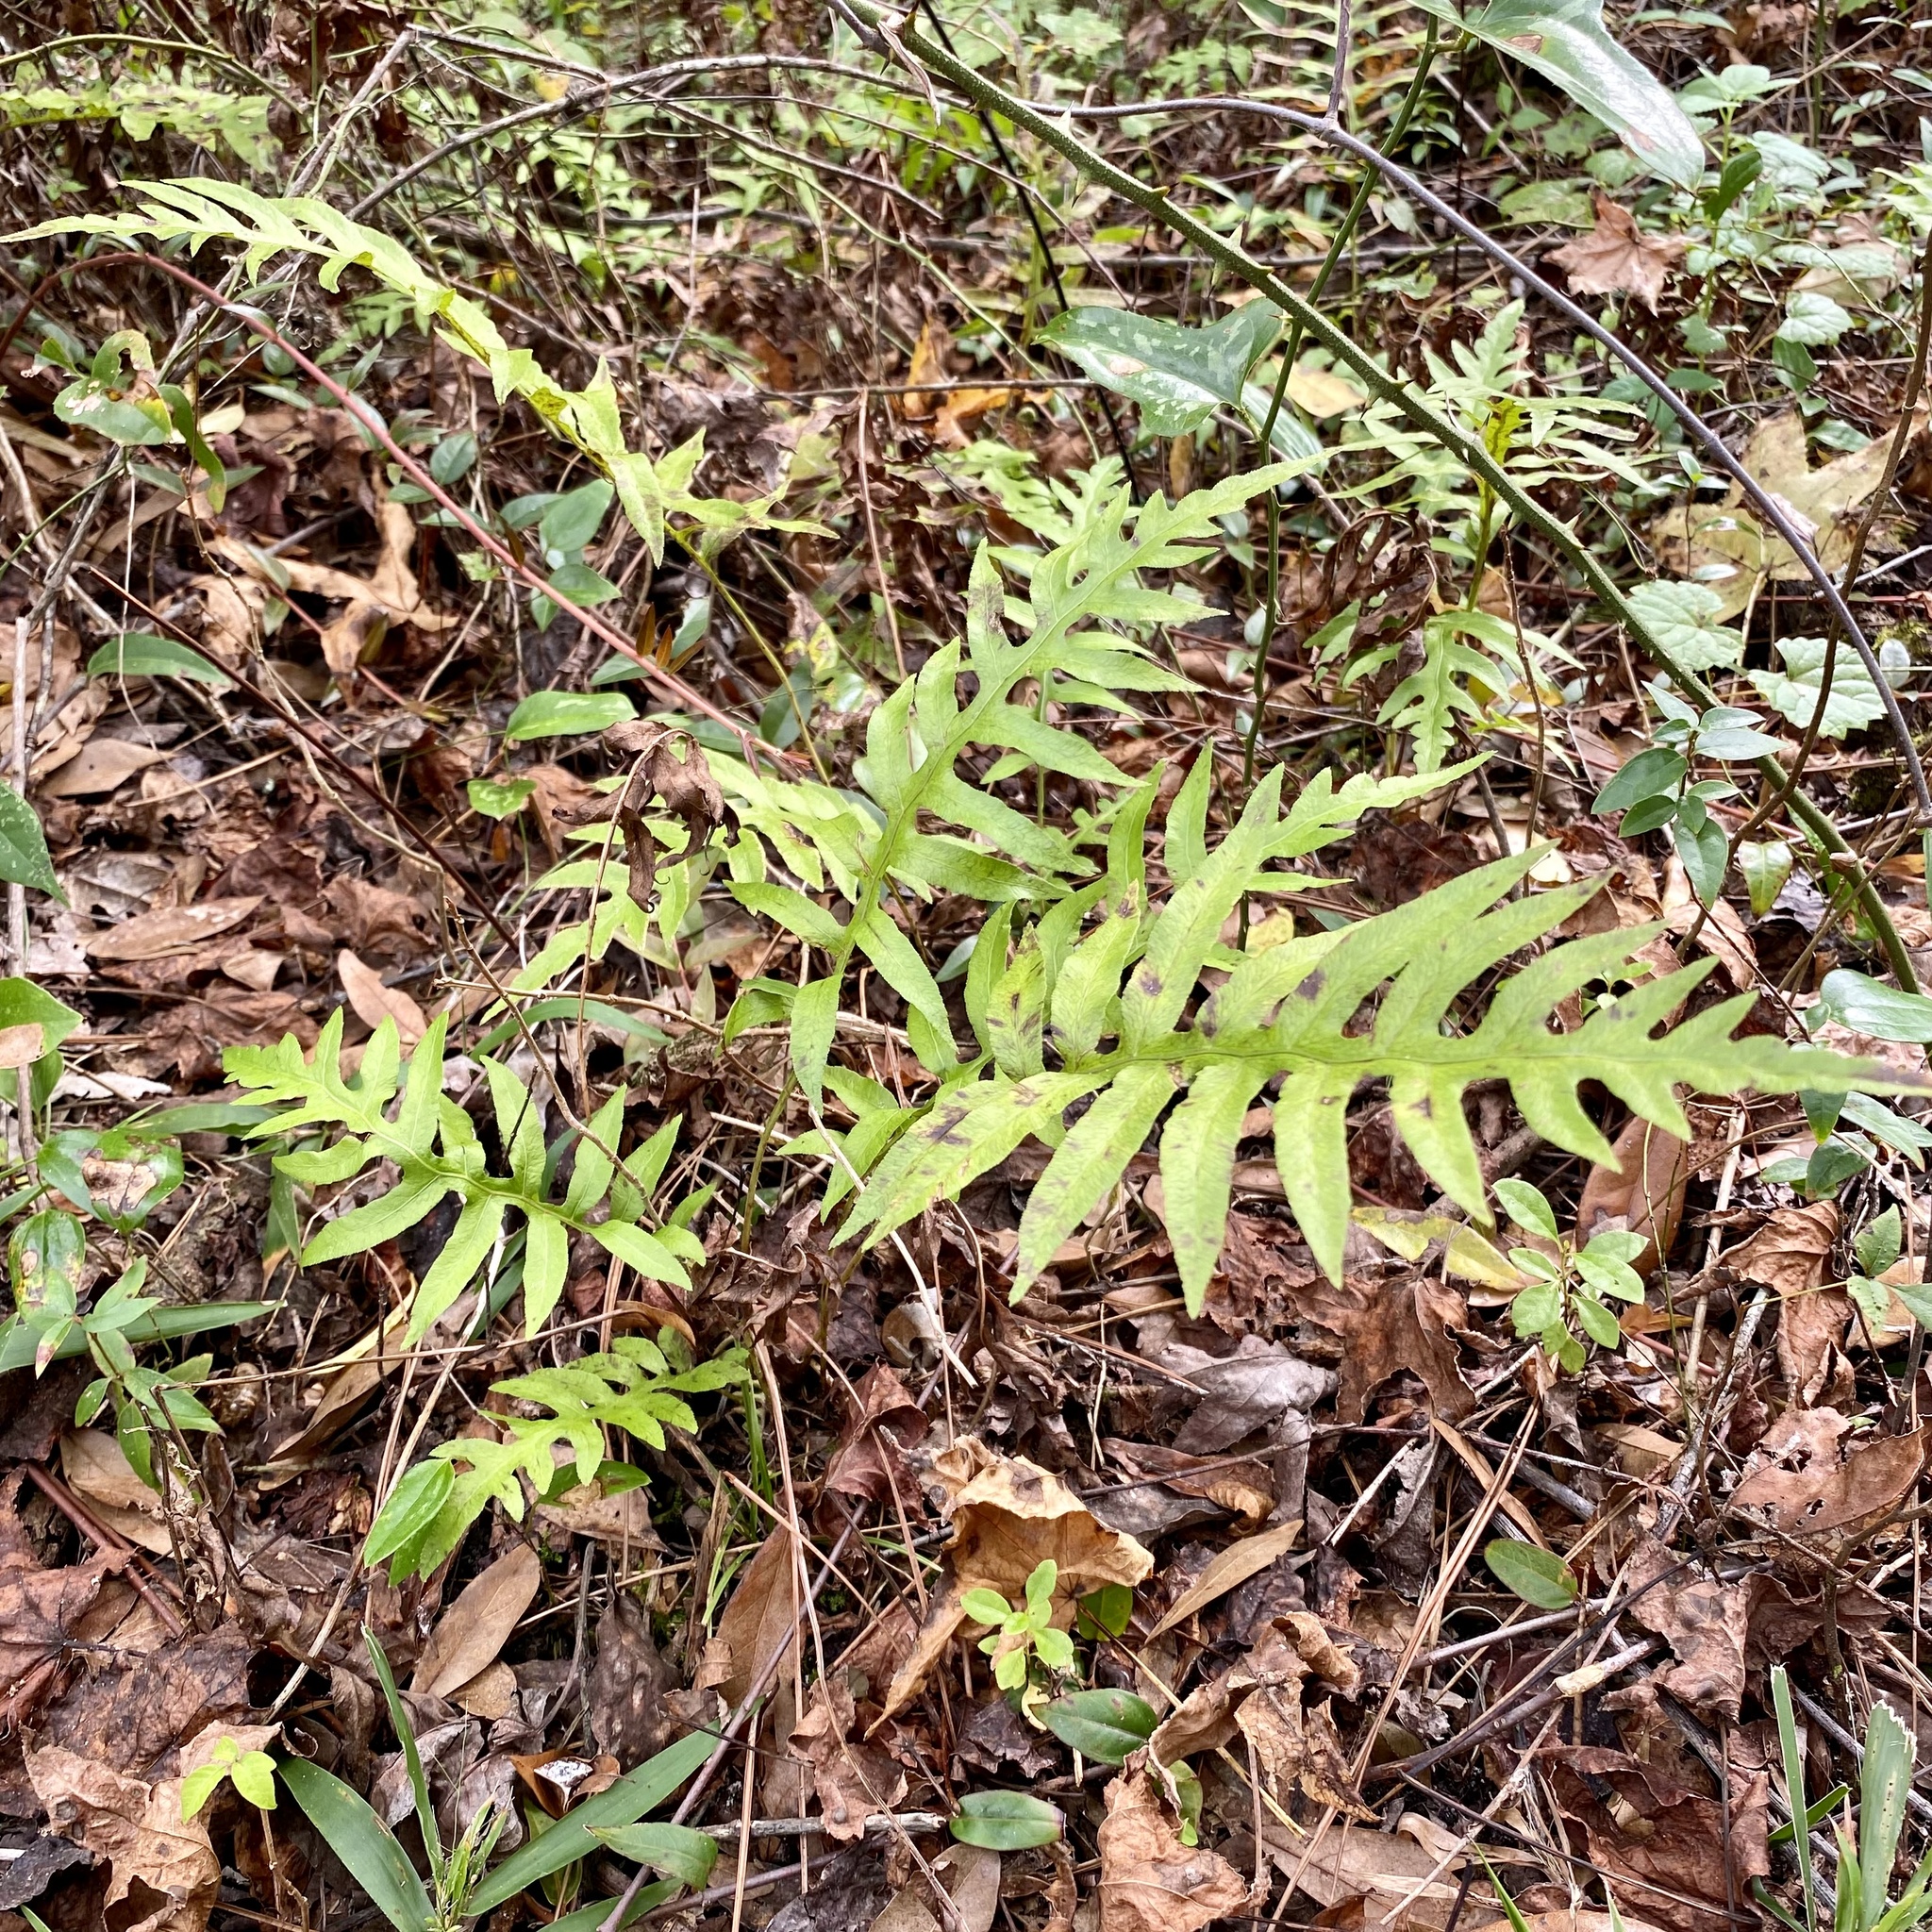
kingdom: Plantae
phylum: Tracheophyta
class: Polypodiopsida
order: Polypodiales
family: Blechnaceae
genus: Lorinseria
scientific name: Lorinseria areolata
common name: Dwarf chain fern
